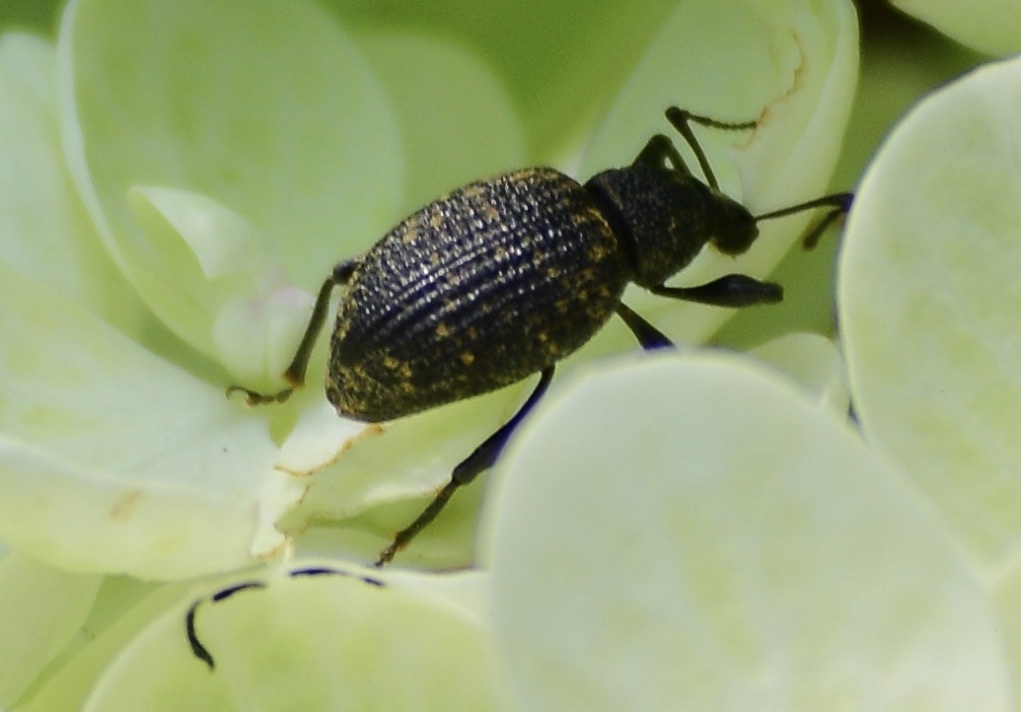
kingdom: Animalia
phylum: Arthropoda
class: Insecta
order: Coleoptera
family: Curculionidae
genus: Otiorhynchus
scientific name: Otiorhynchus sulcatus
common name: Black vine weevil
